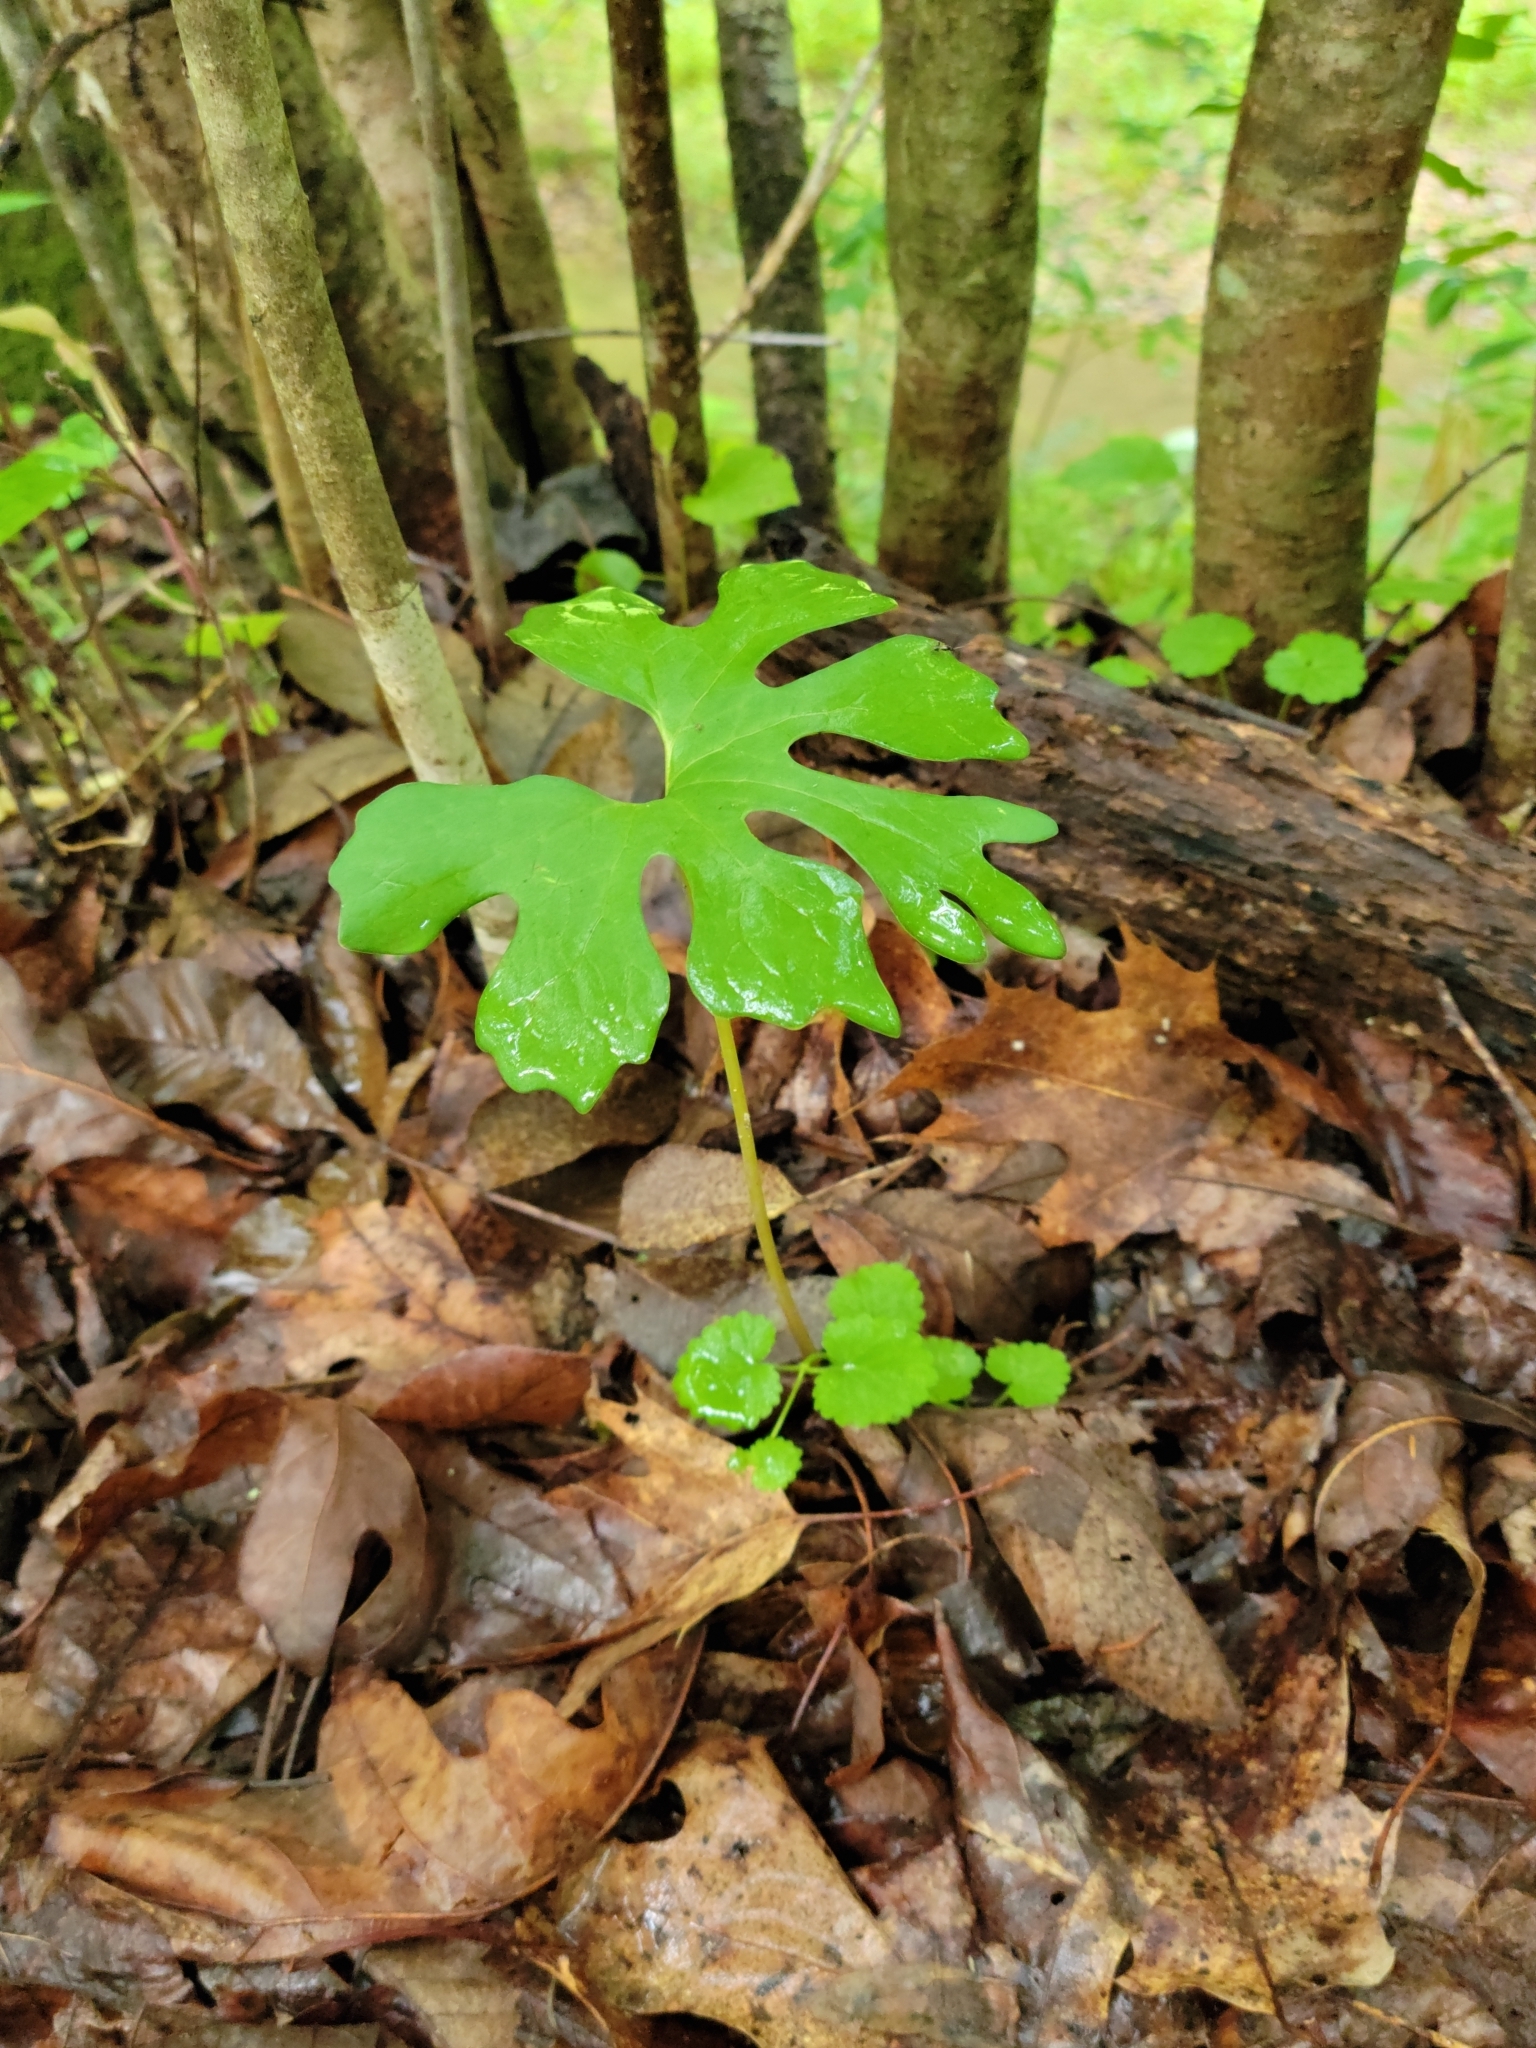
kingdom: Plantae
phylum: Tracheophyta
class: Magnoliopsida
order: Ranunculales
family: Papaveraceae
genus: Sanguinaria
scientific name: Sanguinaria canadensis
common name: Bloodroot
